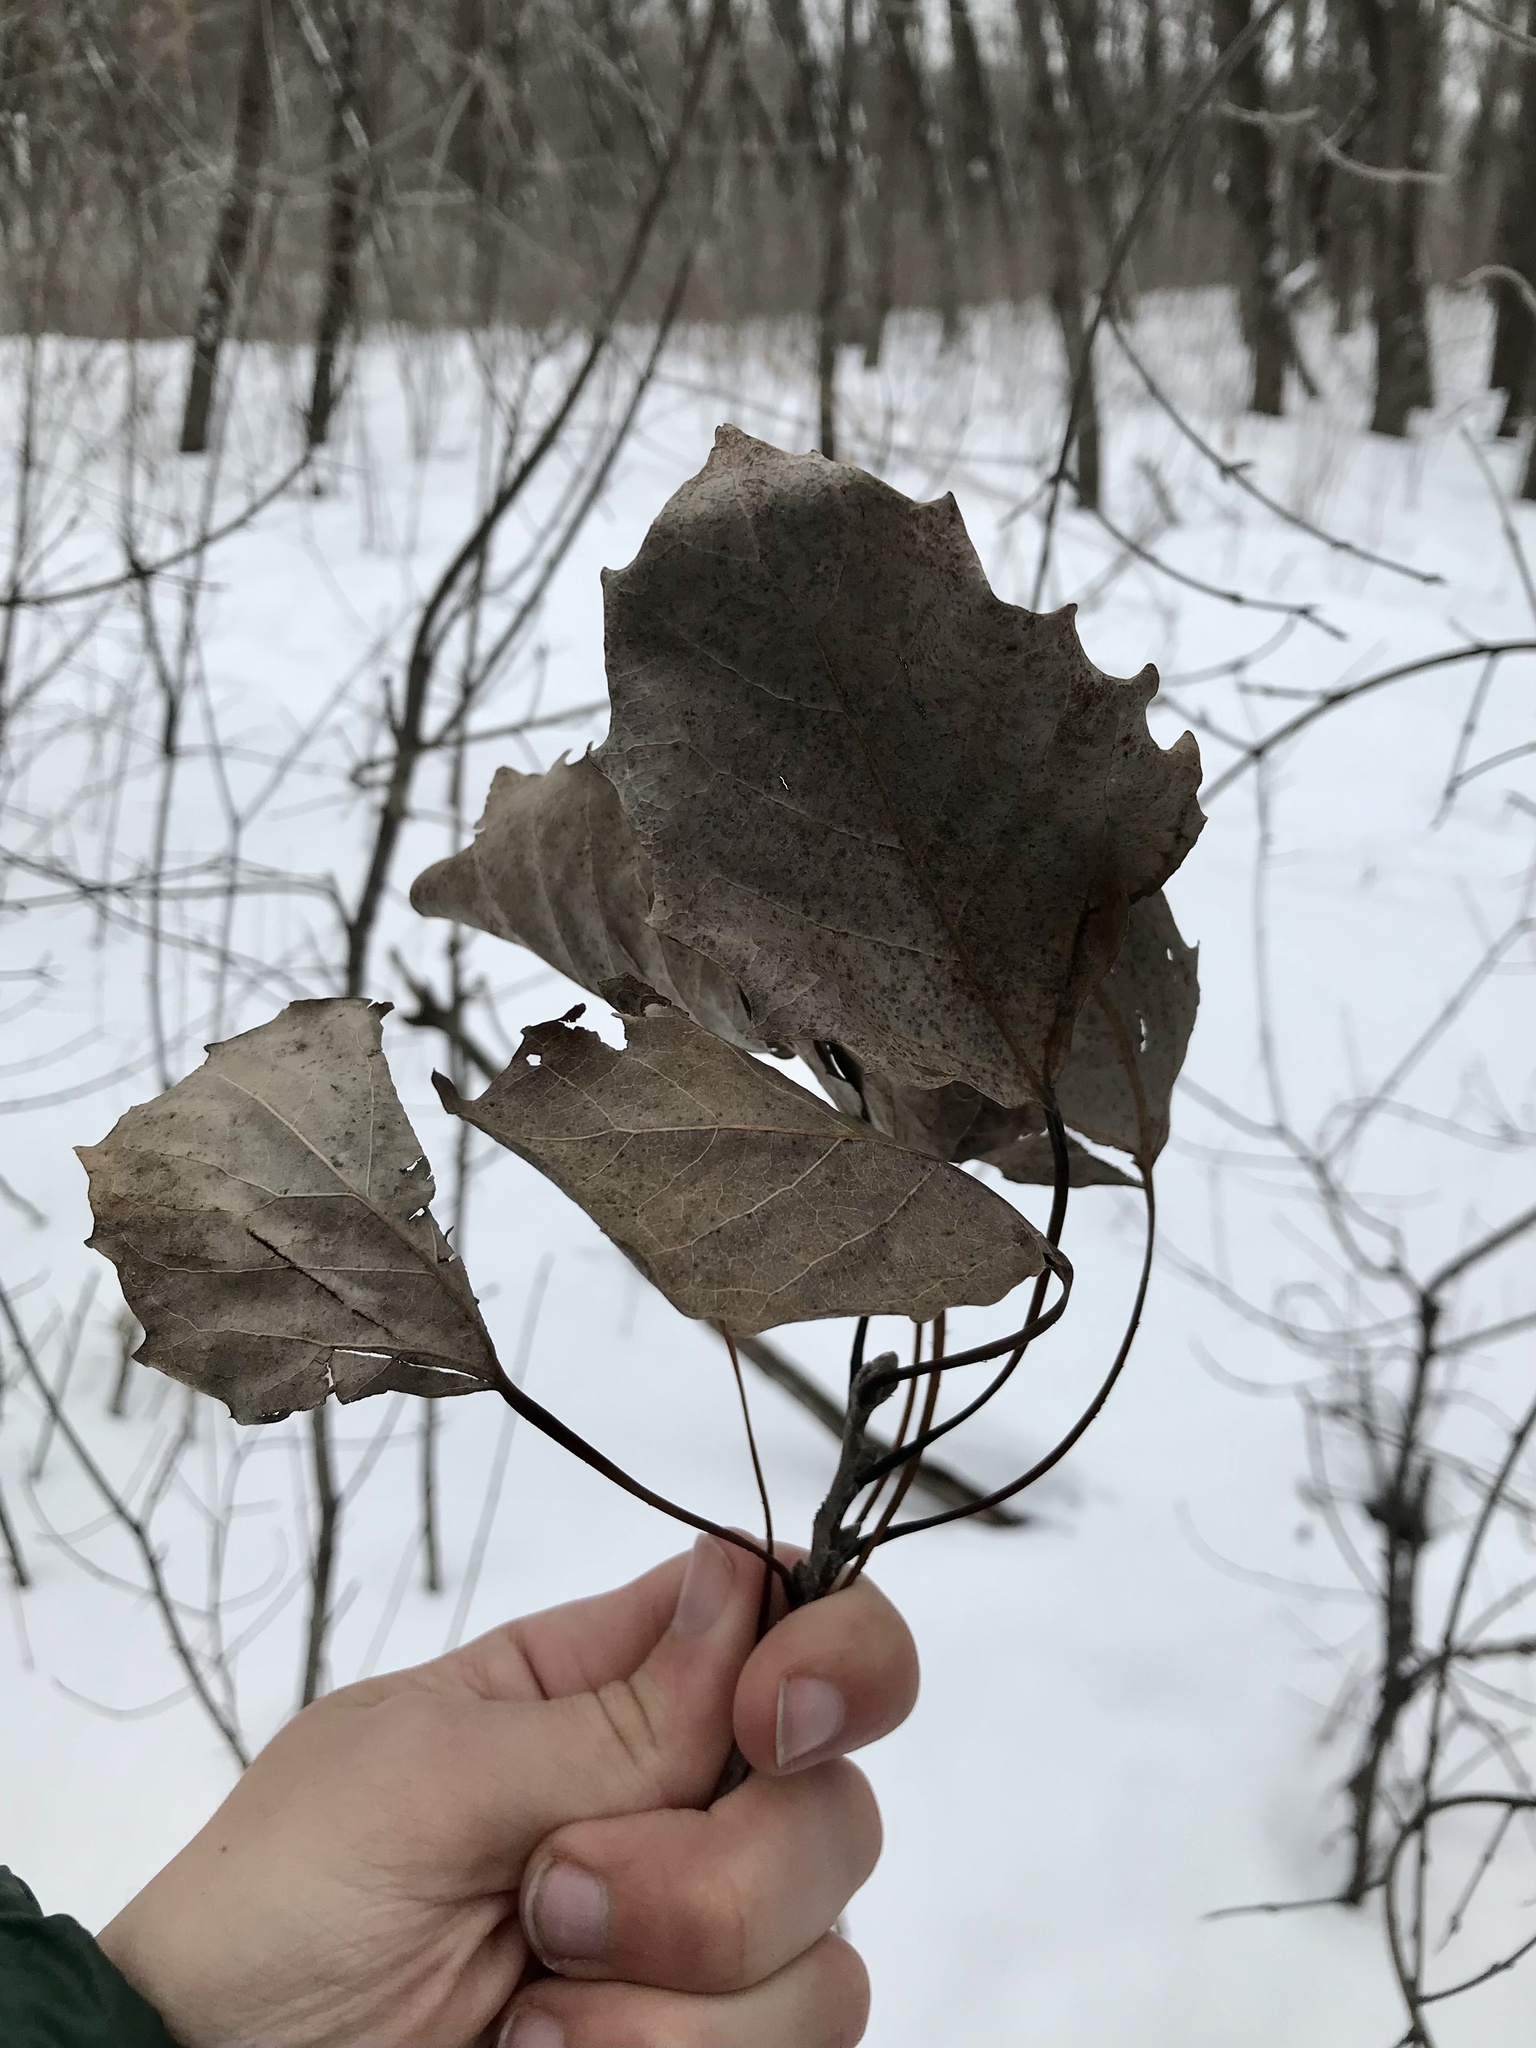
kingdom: Plantae
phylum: Tracheophyta
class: Magnoliopsida
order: Malpighiales
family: Salicaceae
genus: Populus
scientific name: Populus grandidentata
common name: Bigtooth aspen
